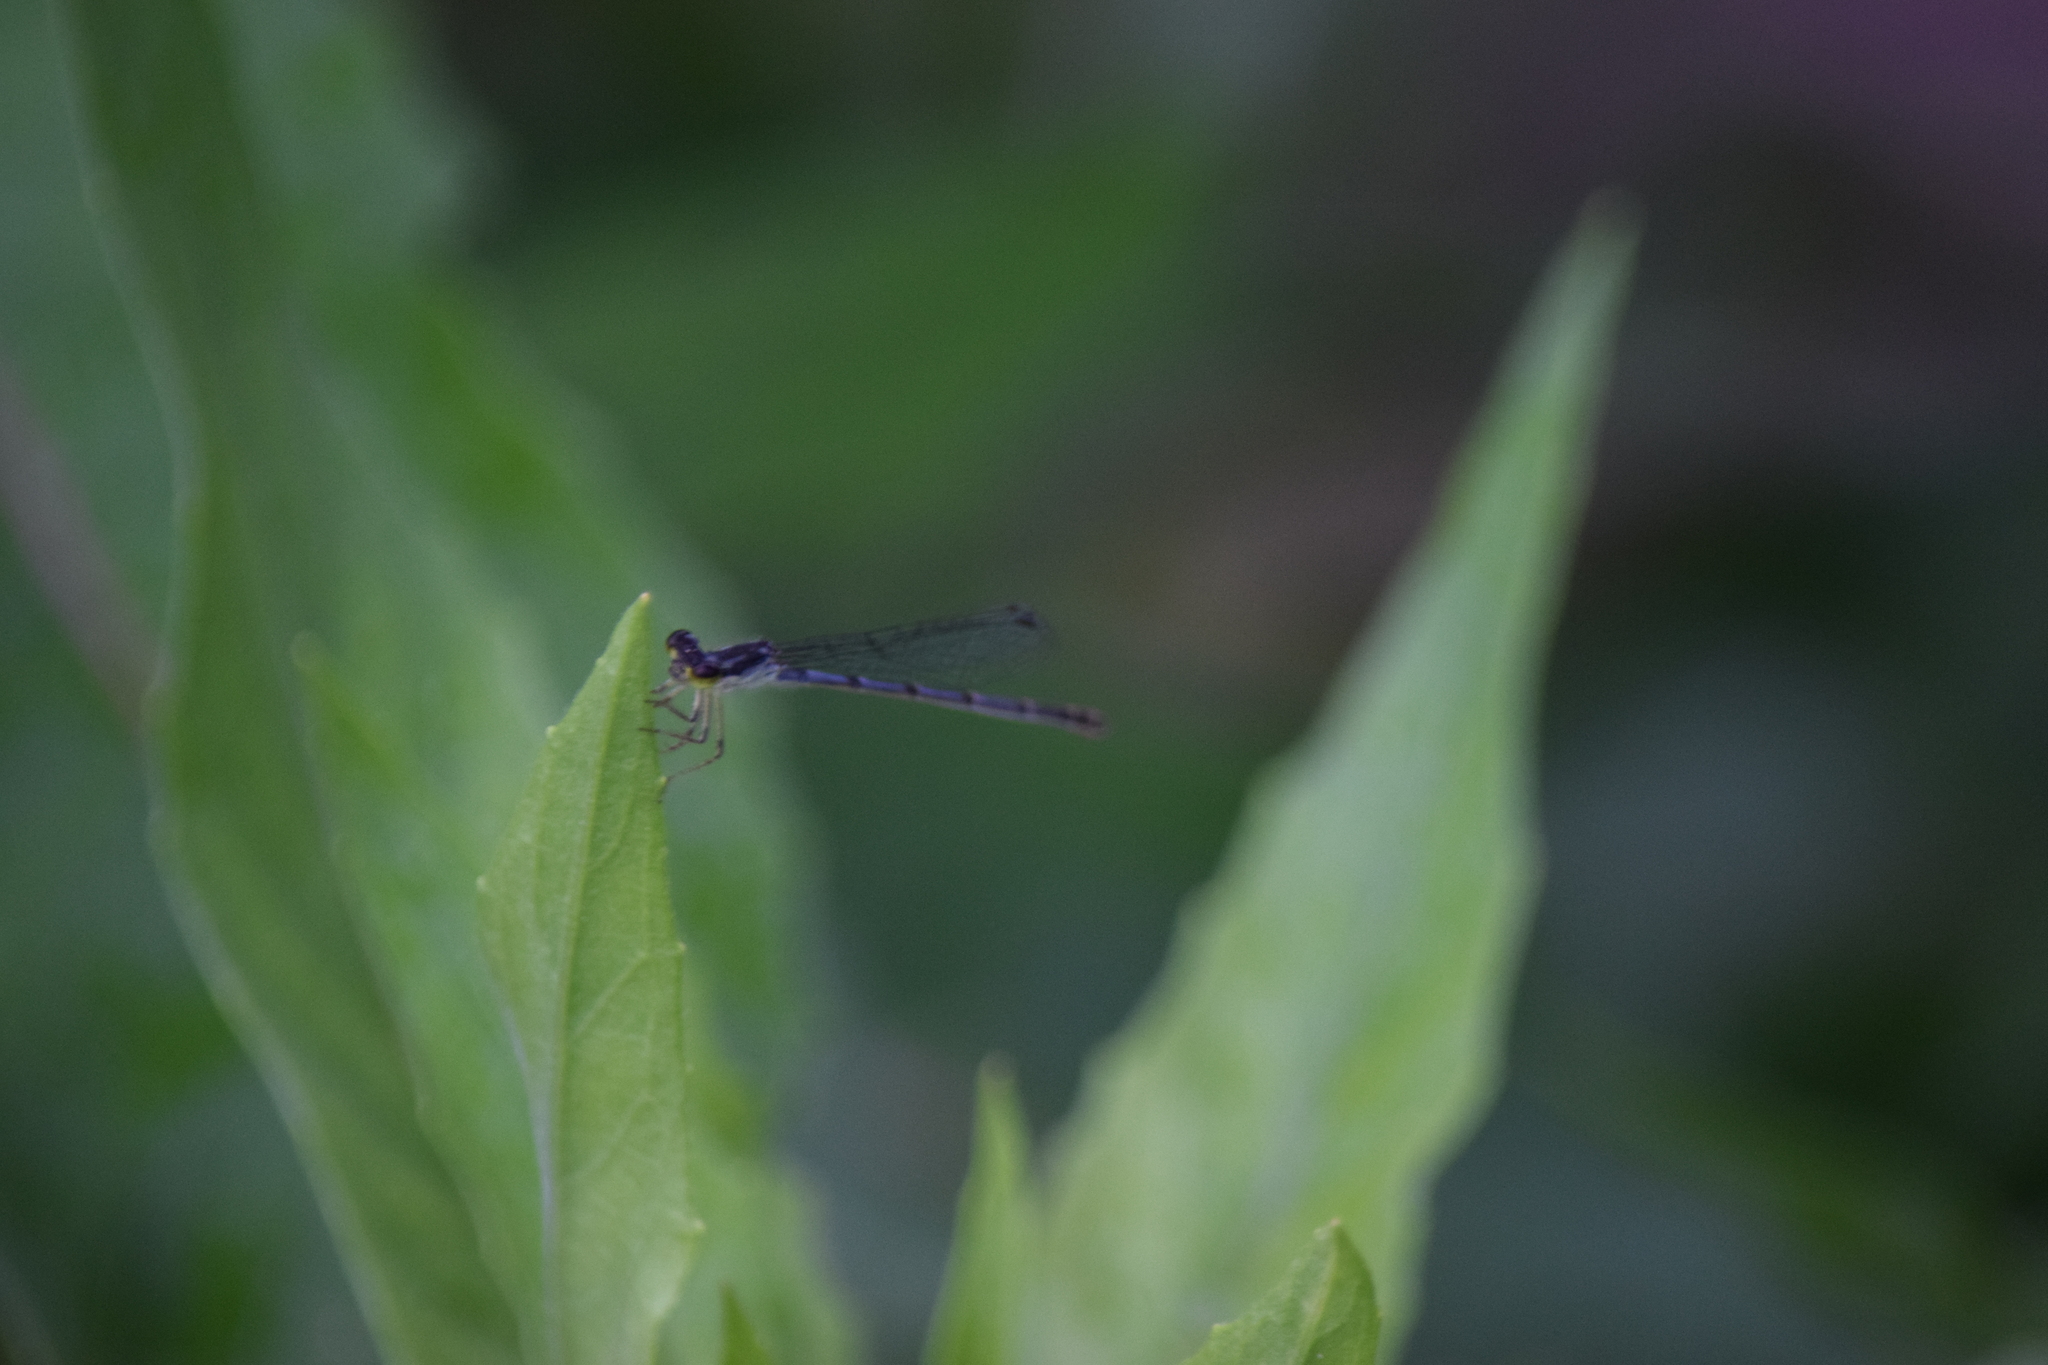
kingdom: Animalia
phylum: Arthropoda
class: Insecta
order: Odonata
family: Coenagrionidae
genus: Ischnura
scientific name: Ischnura posita
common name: Fragile forktail
